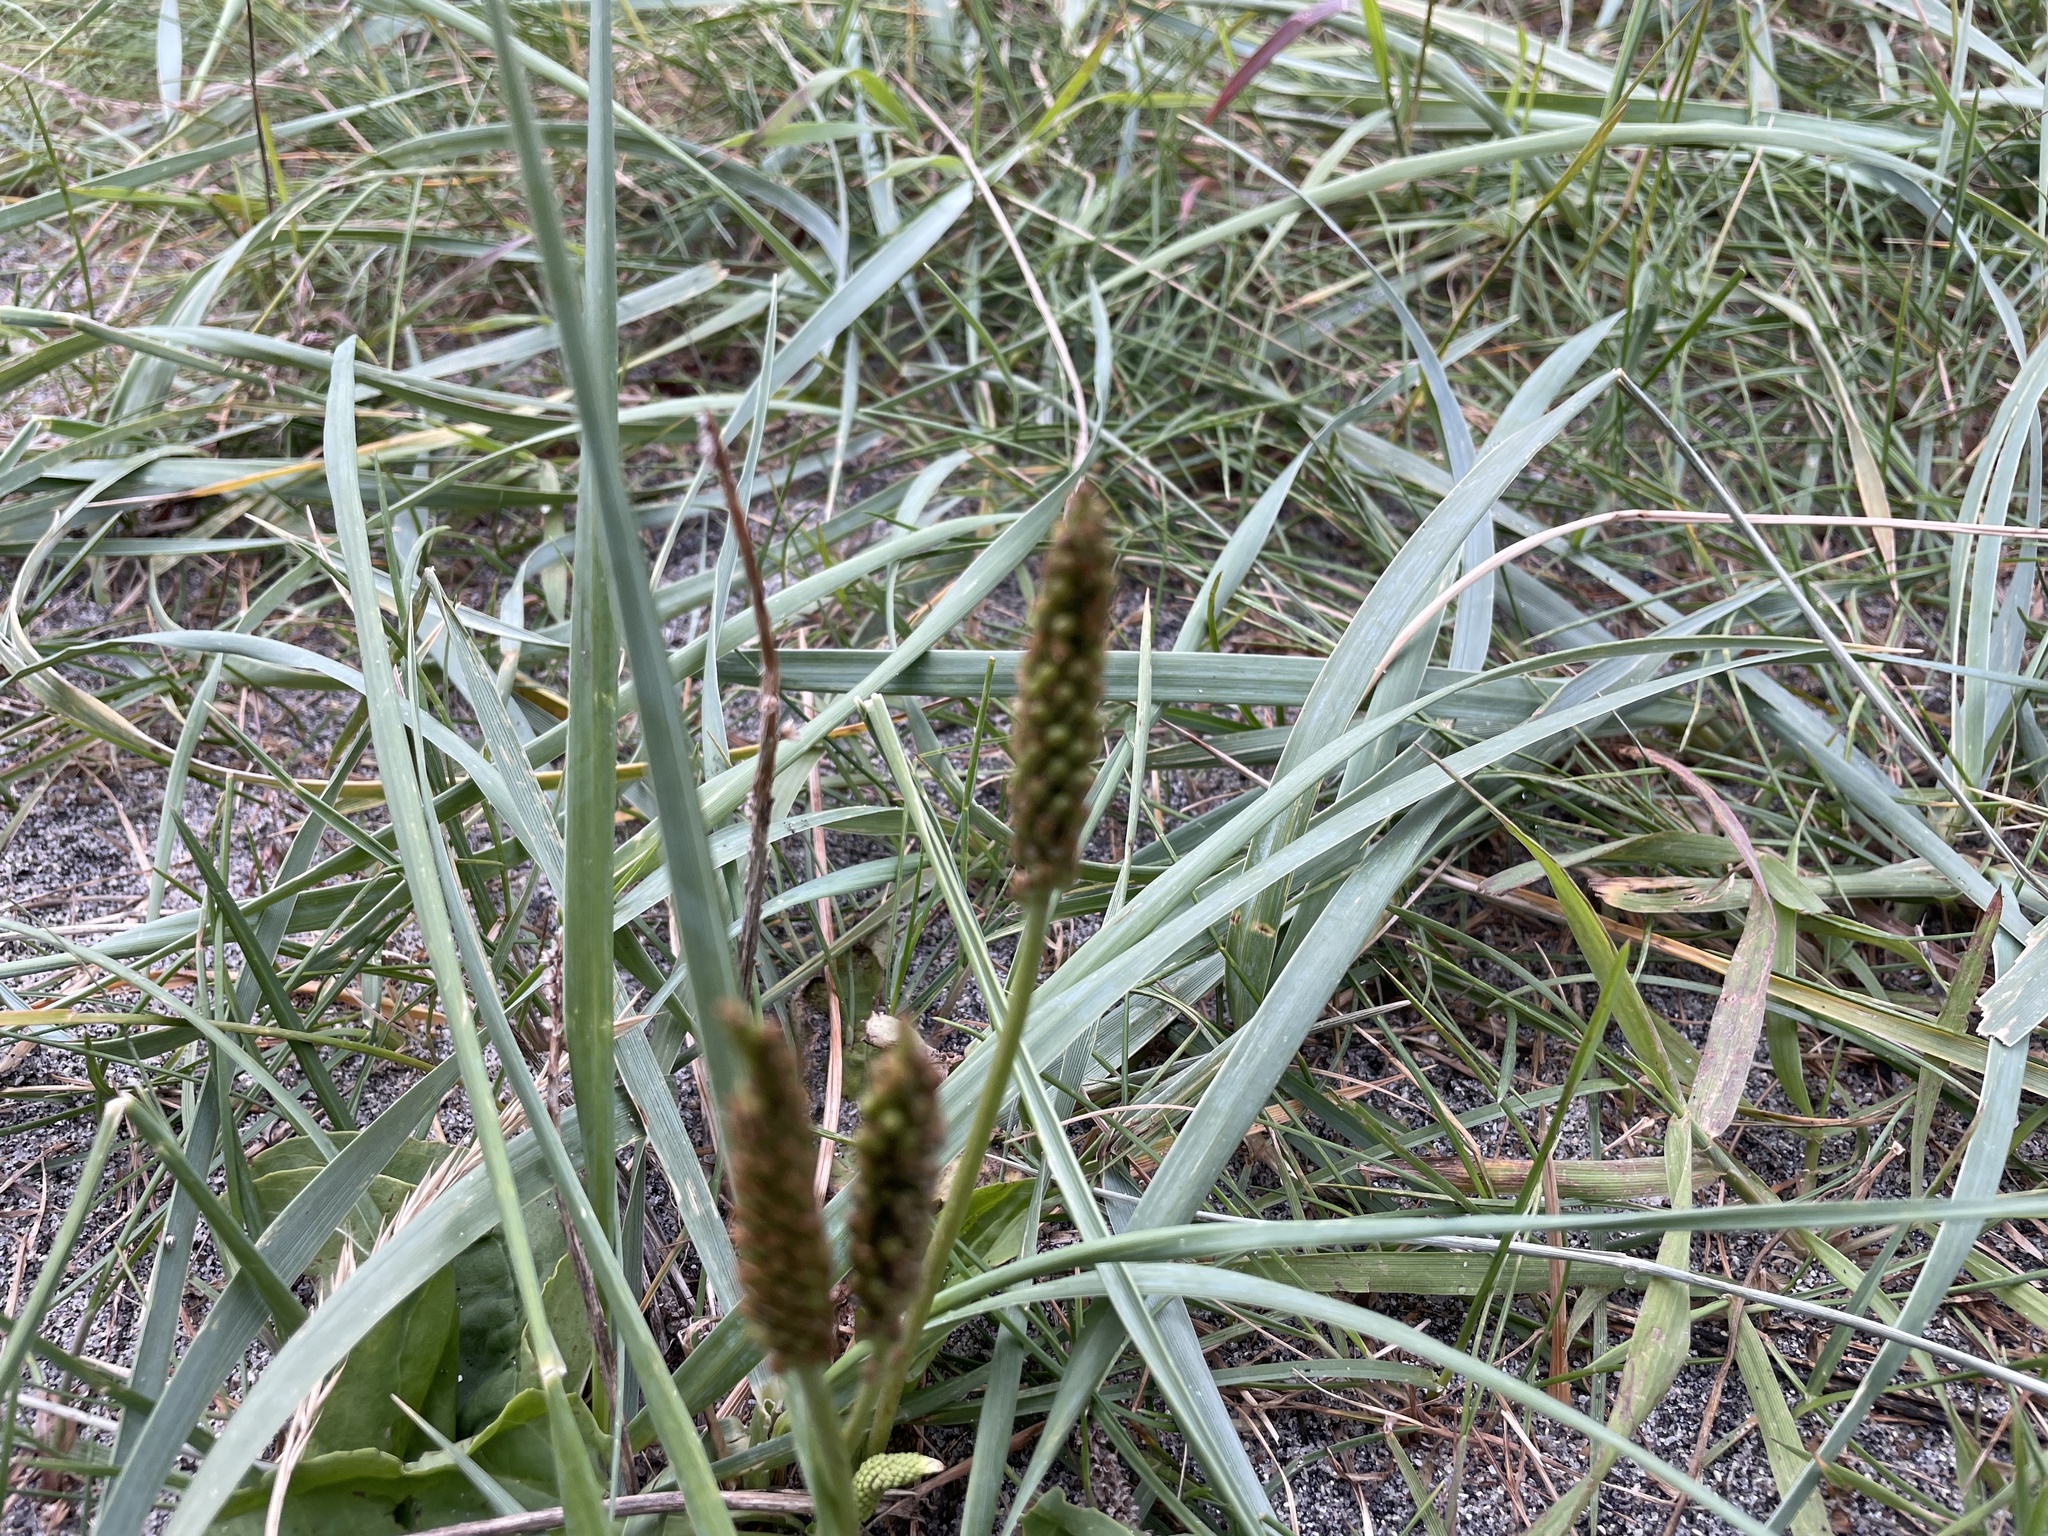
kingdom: Plantae
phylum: Tracheophyta
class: Magnoliopsida
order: Lamiales
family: Plantaginaceae
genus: Plantago
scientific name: Plantago major
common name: Common plantain
